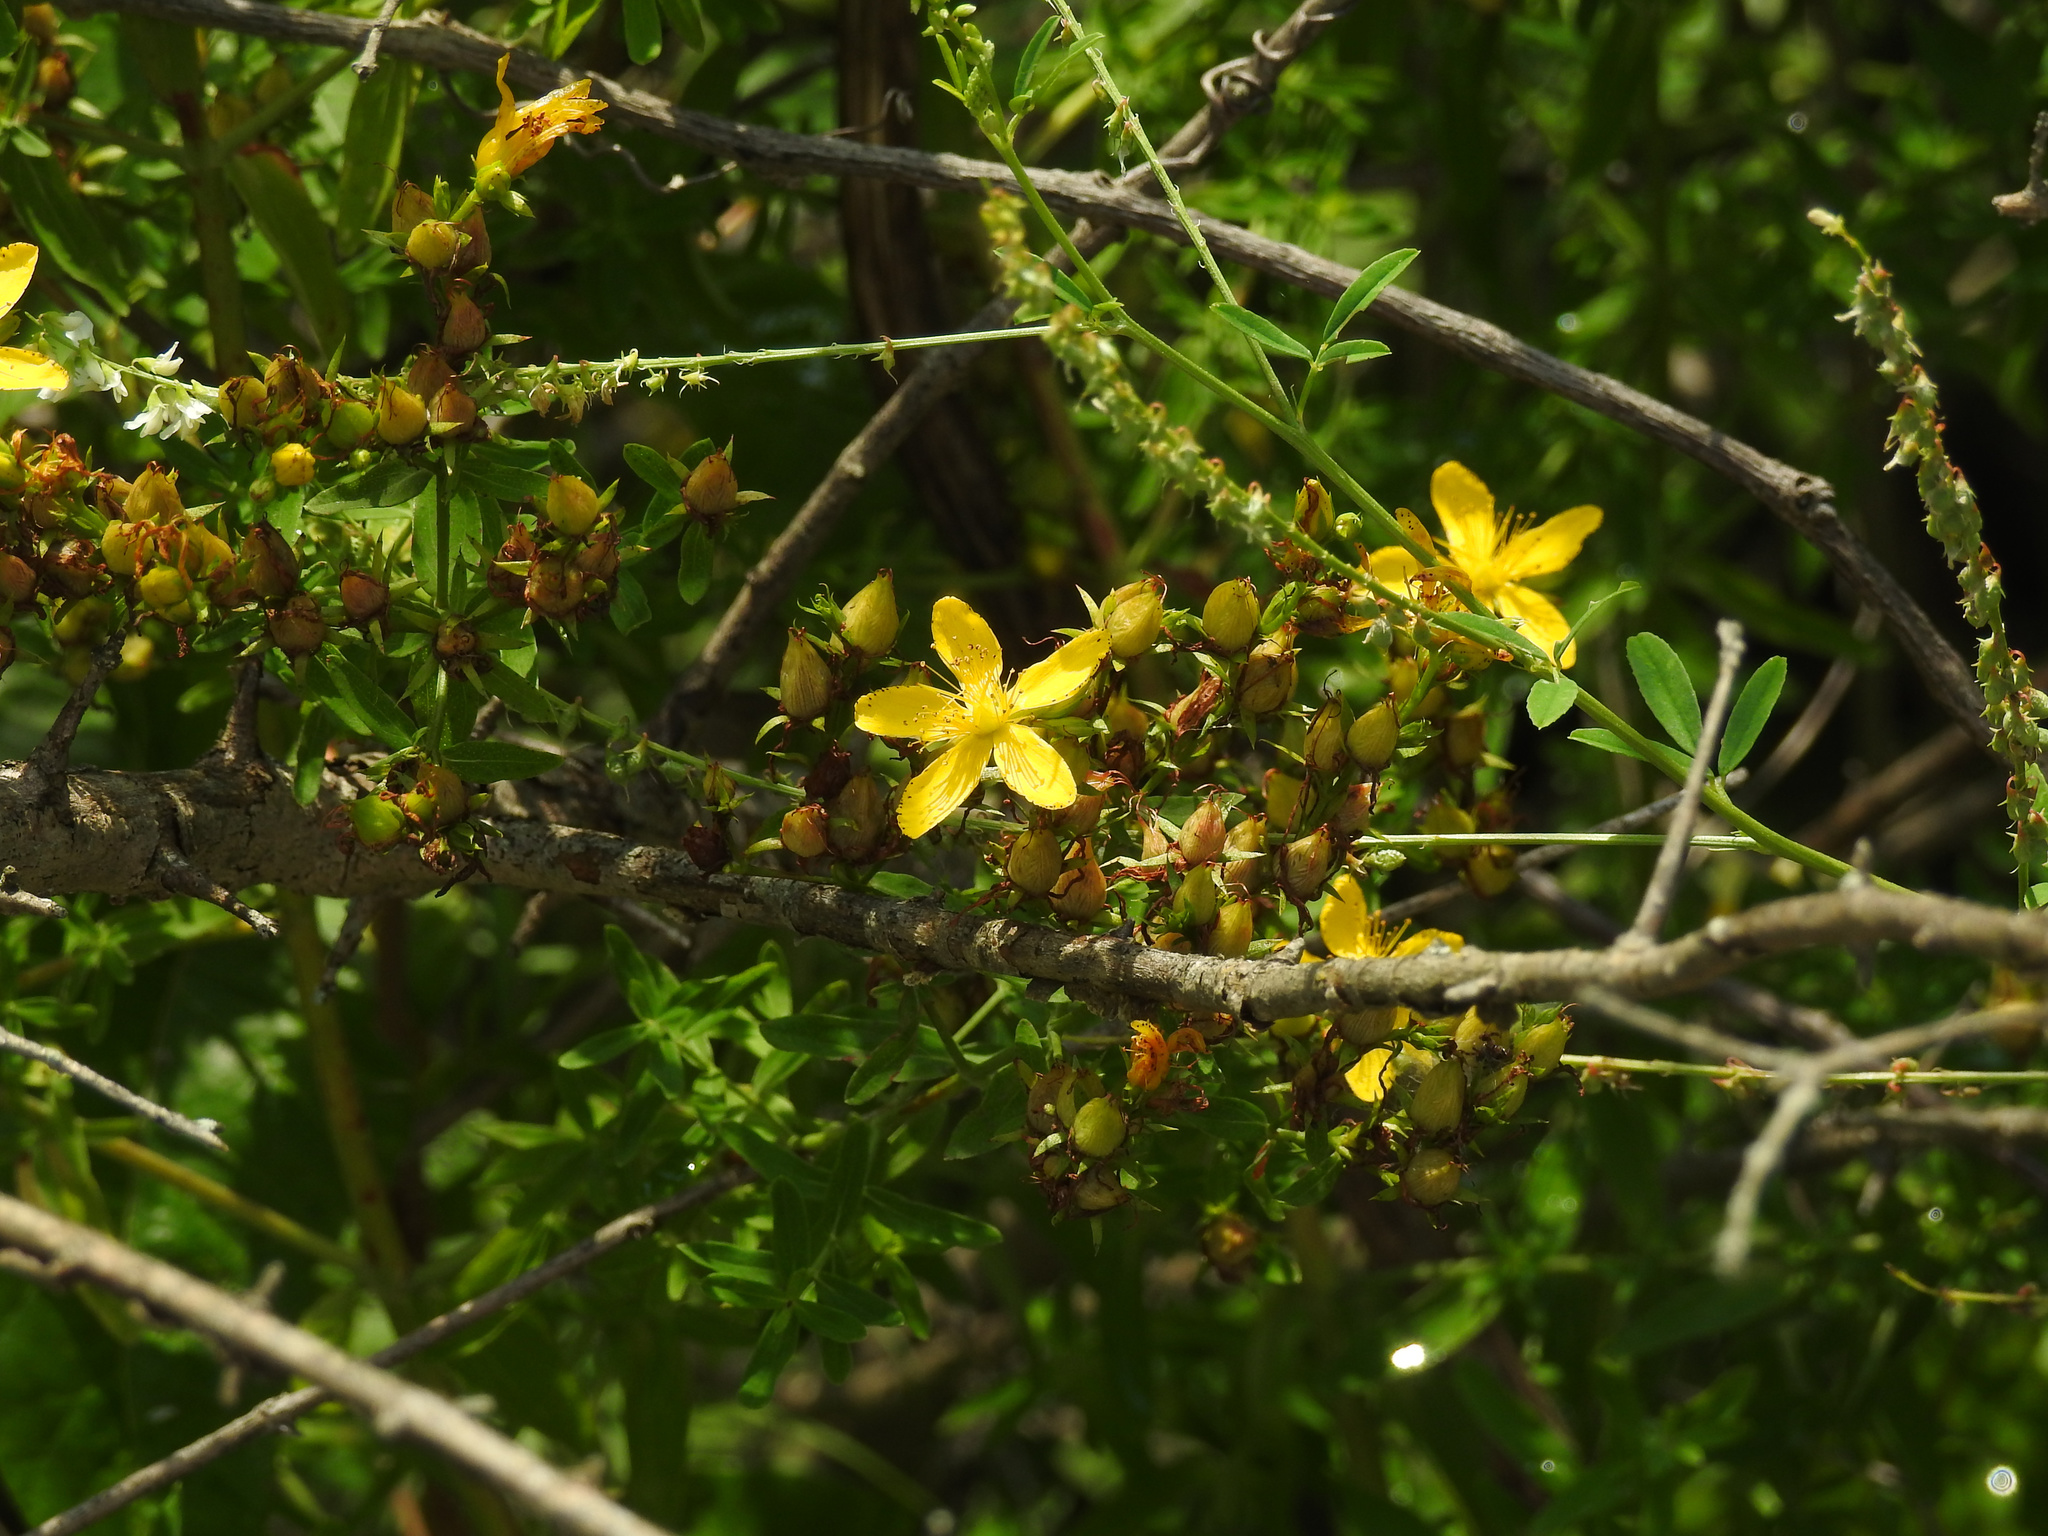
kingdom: Plantae
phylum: Tracheophyta
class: Magnoliopsida
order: Malpighiales
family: Hypericaceae
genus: Hypericum
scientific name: Hypericum perforatum
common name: Common st. johnswort
